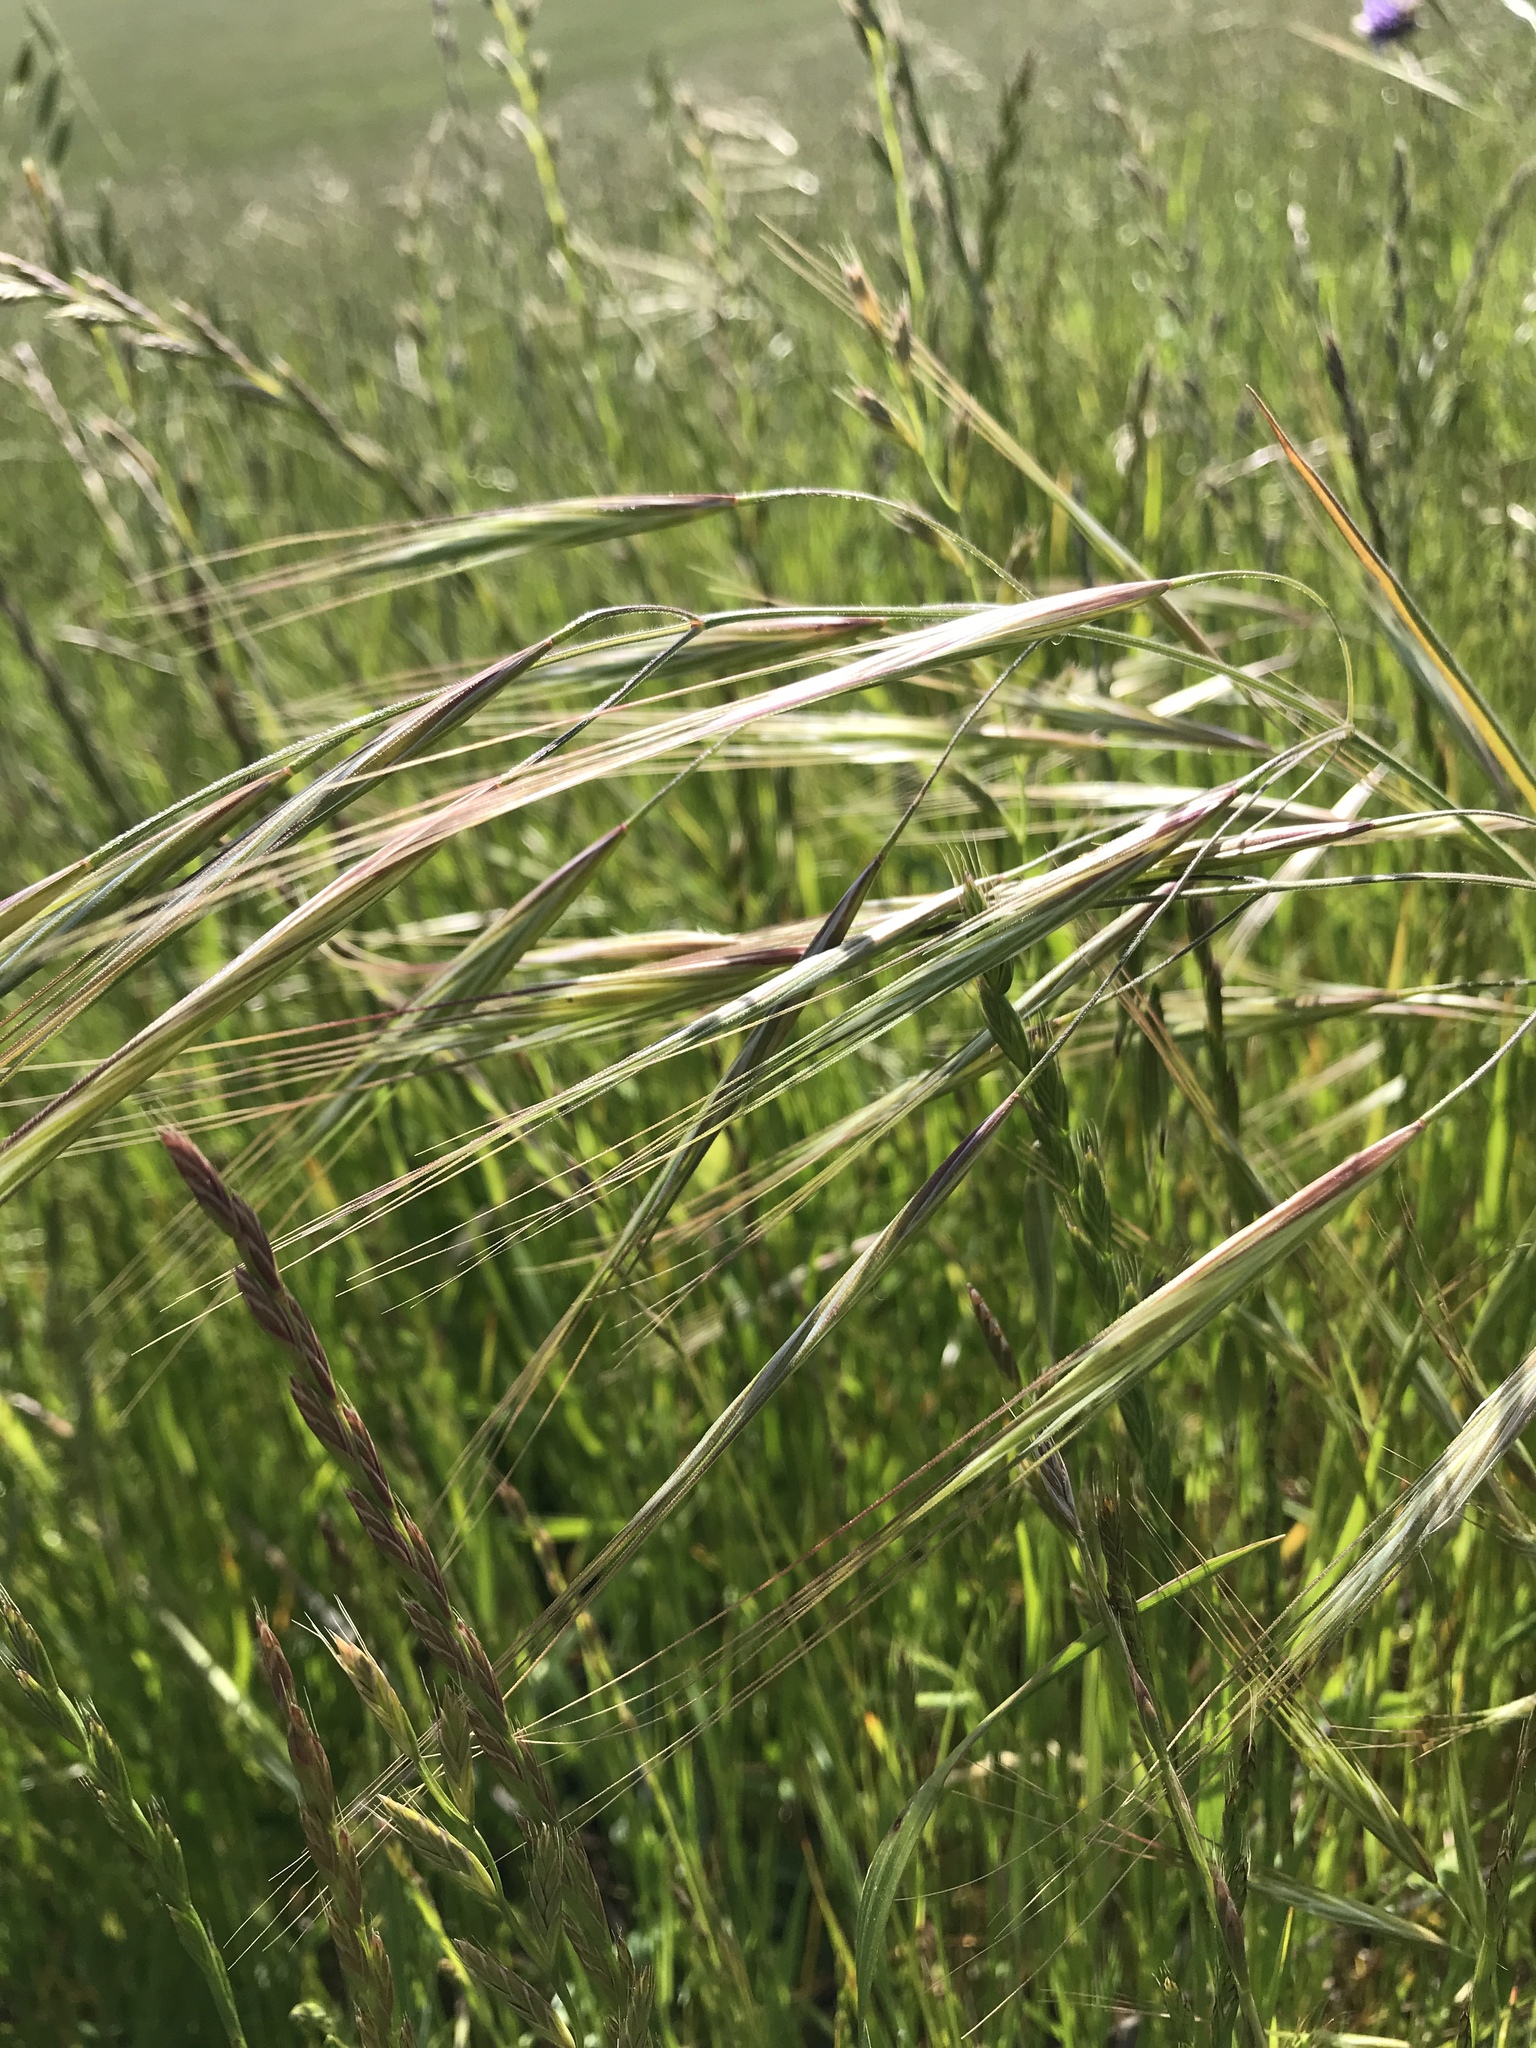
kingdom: Plantae
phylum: Tracheophyta
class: Liliopsida
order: Poales
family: Poaceae
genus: Bromus
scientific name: Bromus diandrus
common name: Ripgut brome
